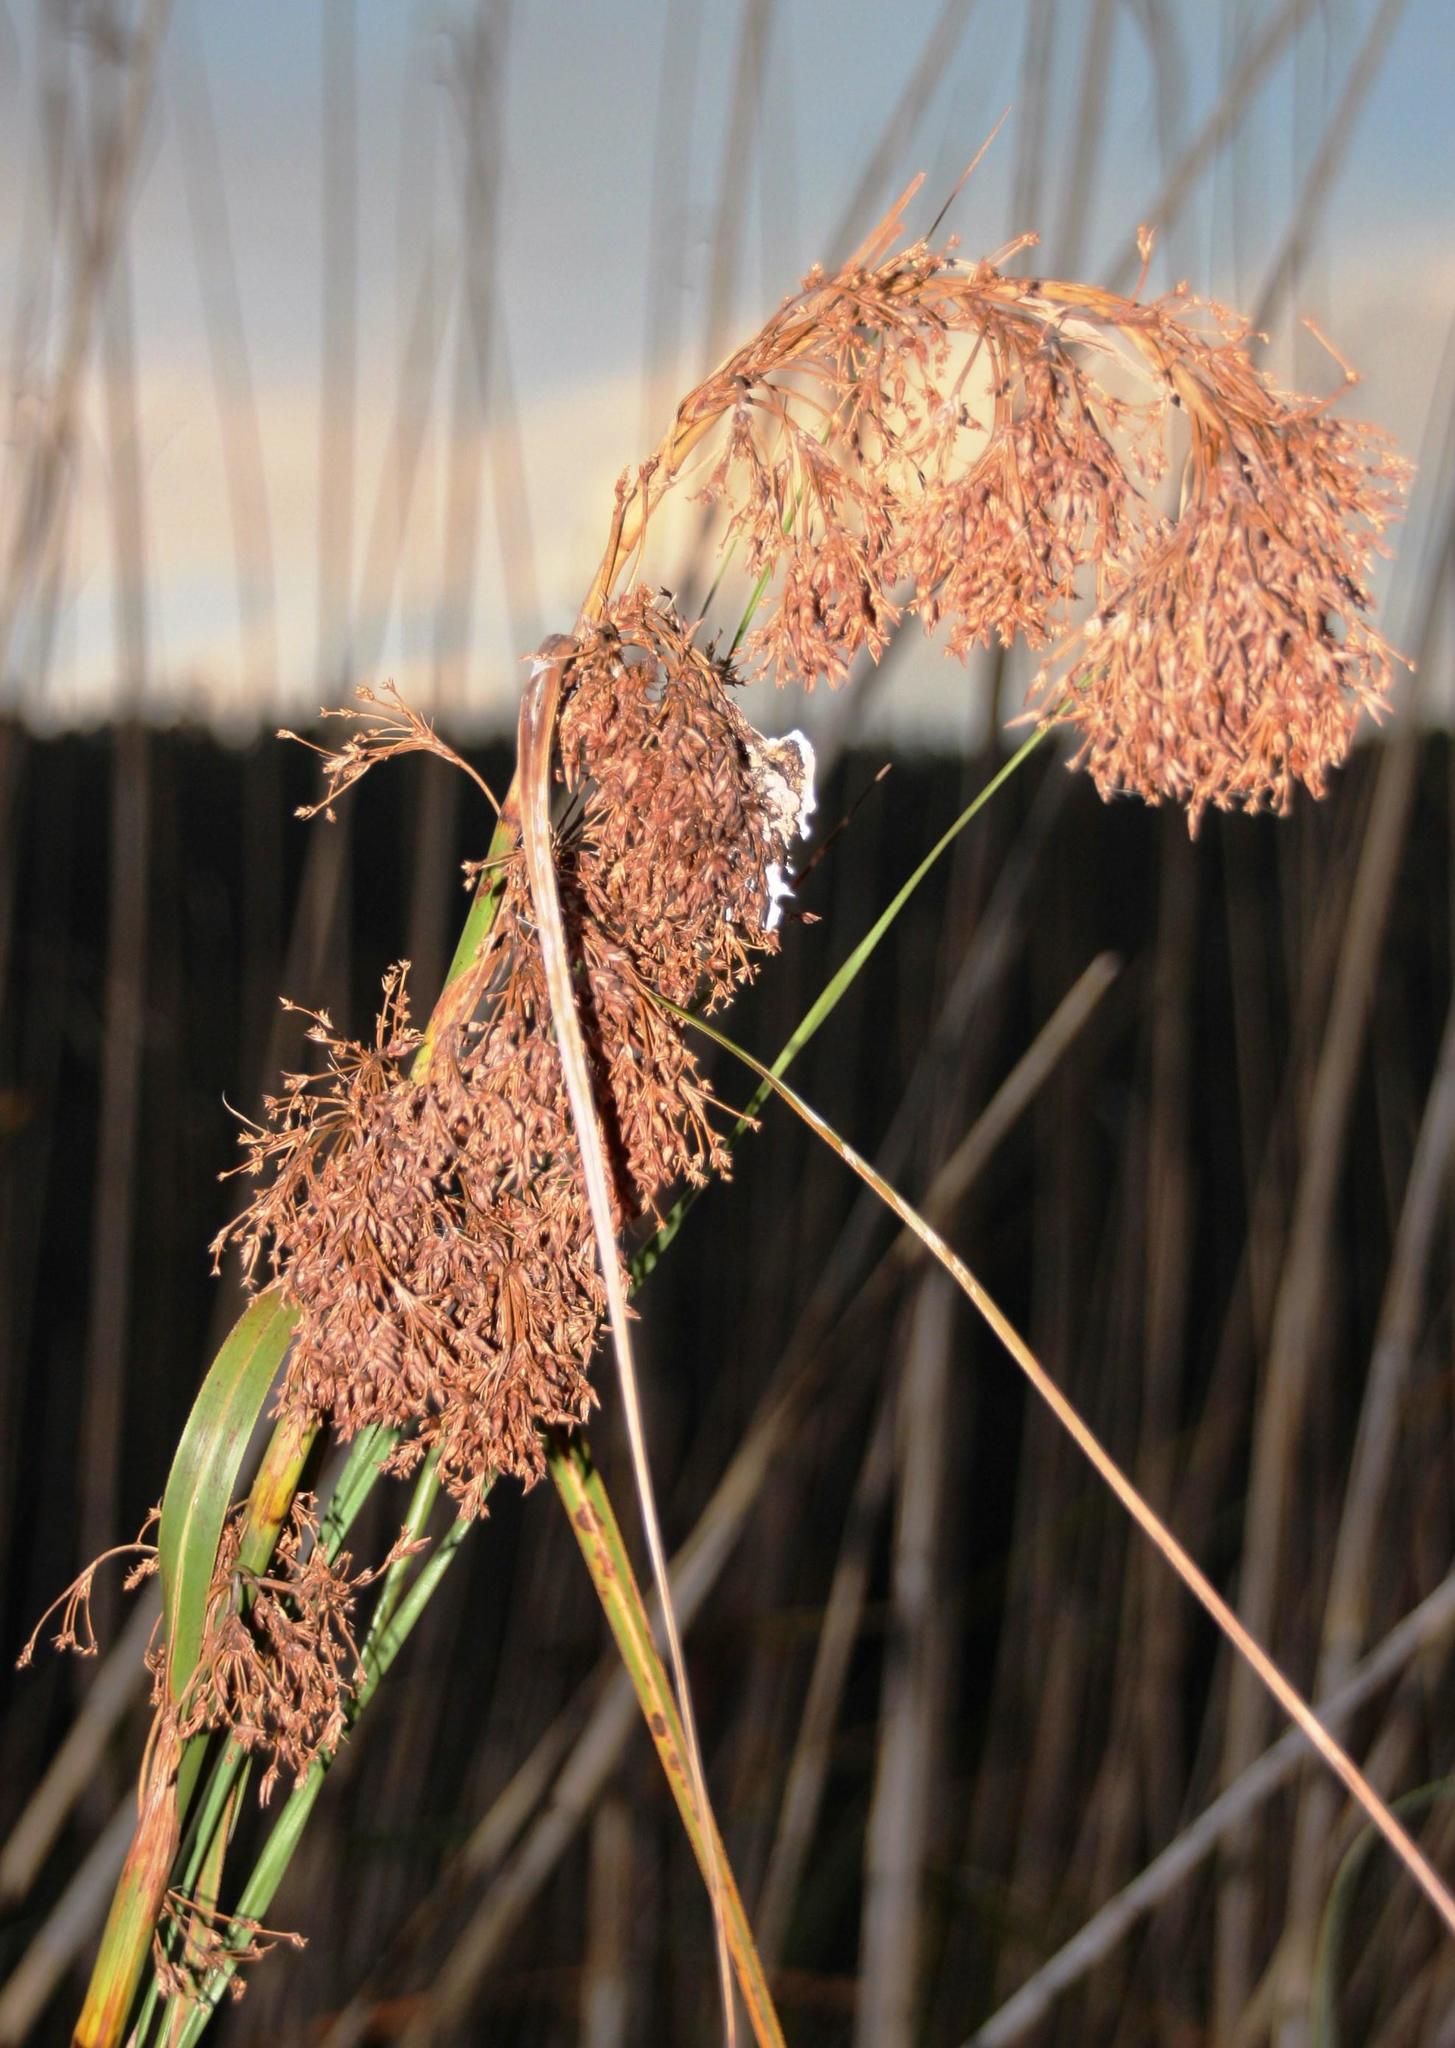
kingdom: Plantae
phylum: Tracheophyta
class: Liliopsida
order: Poales
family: Cyperaceae
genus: Cladium
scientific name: Cladium mariscus
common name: Great fen-sedge
